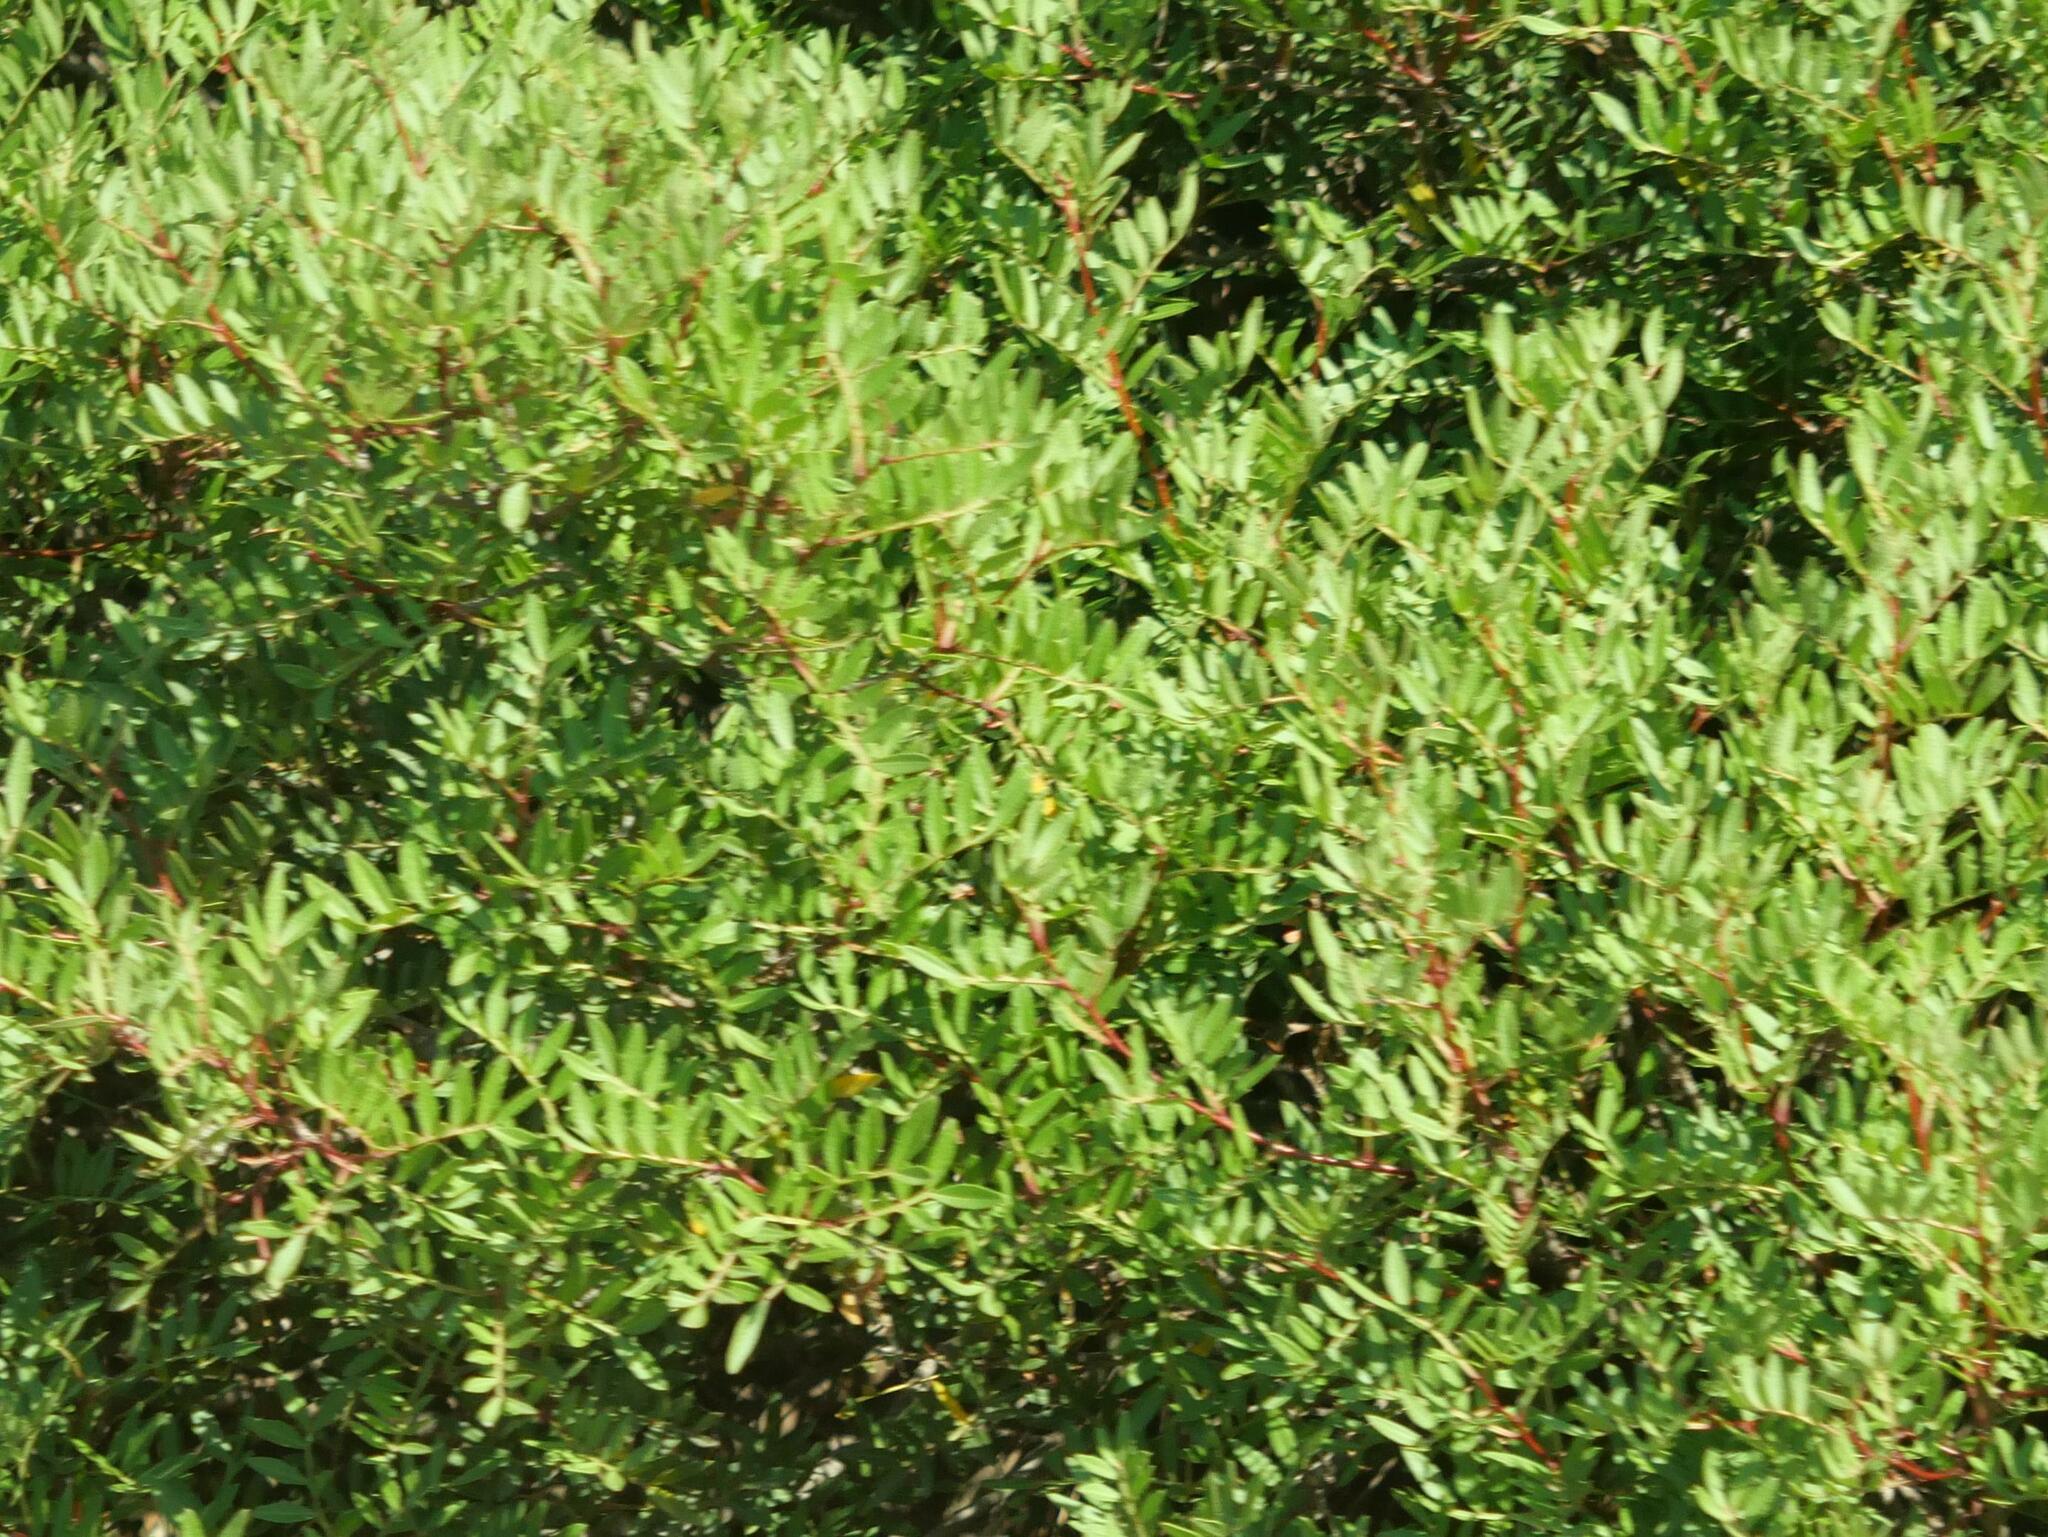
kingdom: Plantae
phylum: Tracheophyta
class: Magnoliopsida
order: Sapindales
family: Anacardiaceae
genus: Pistacia
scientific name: Pistacia lentiscus
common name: Lentisk
